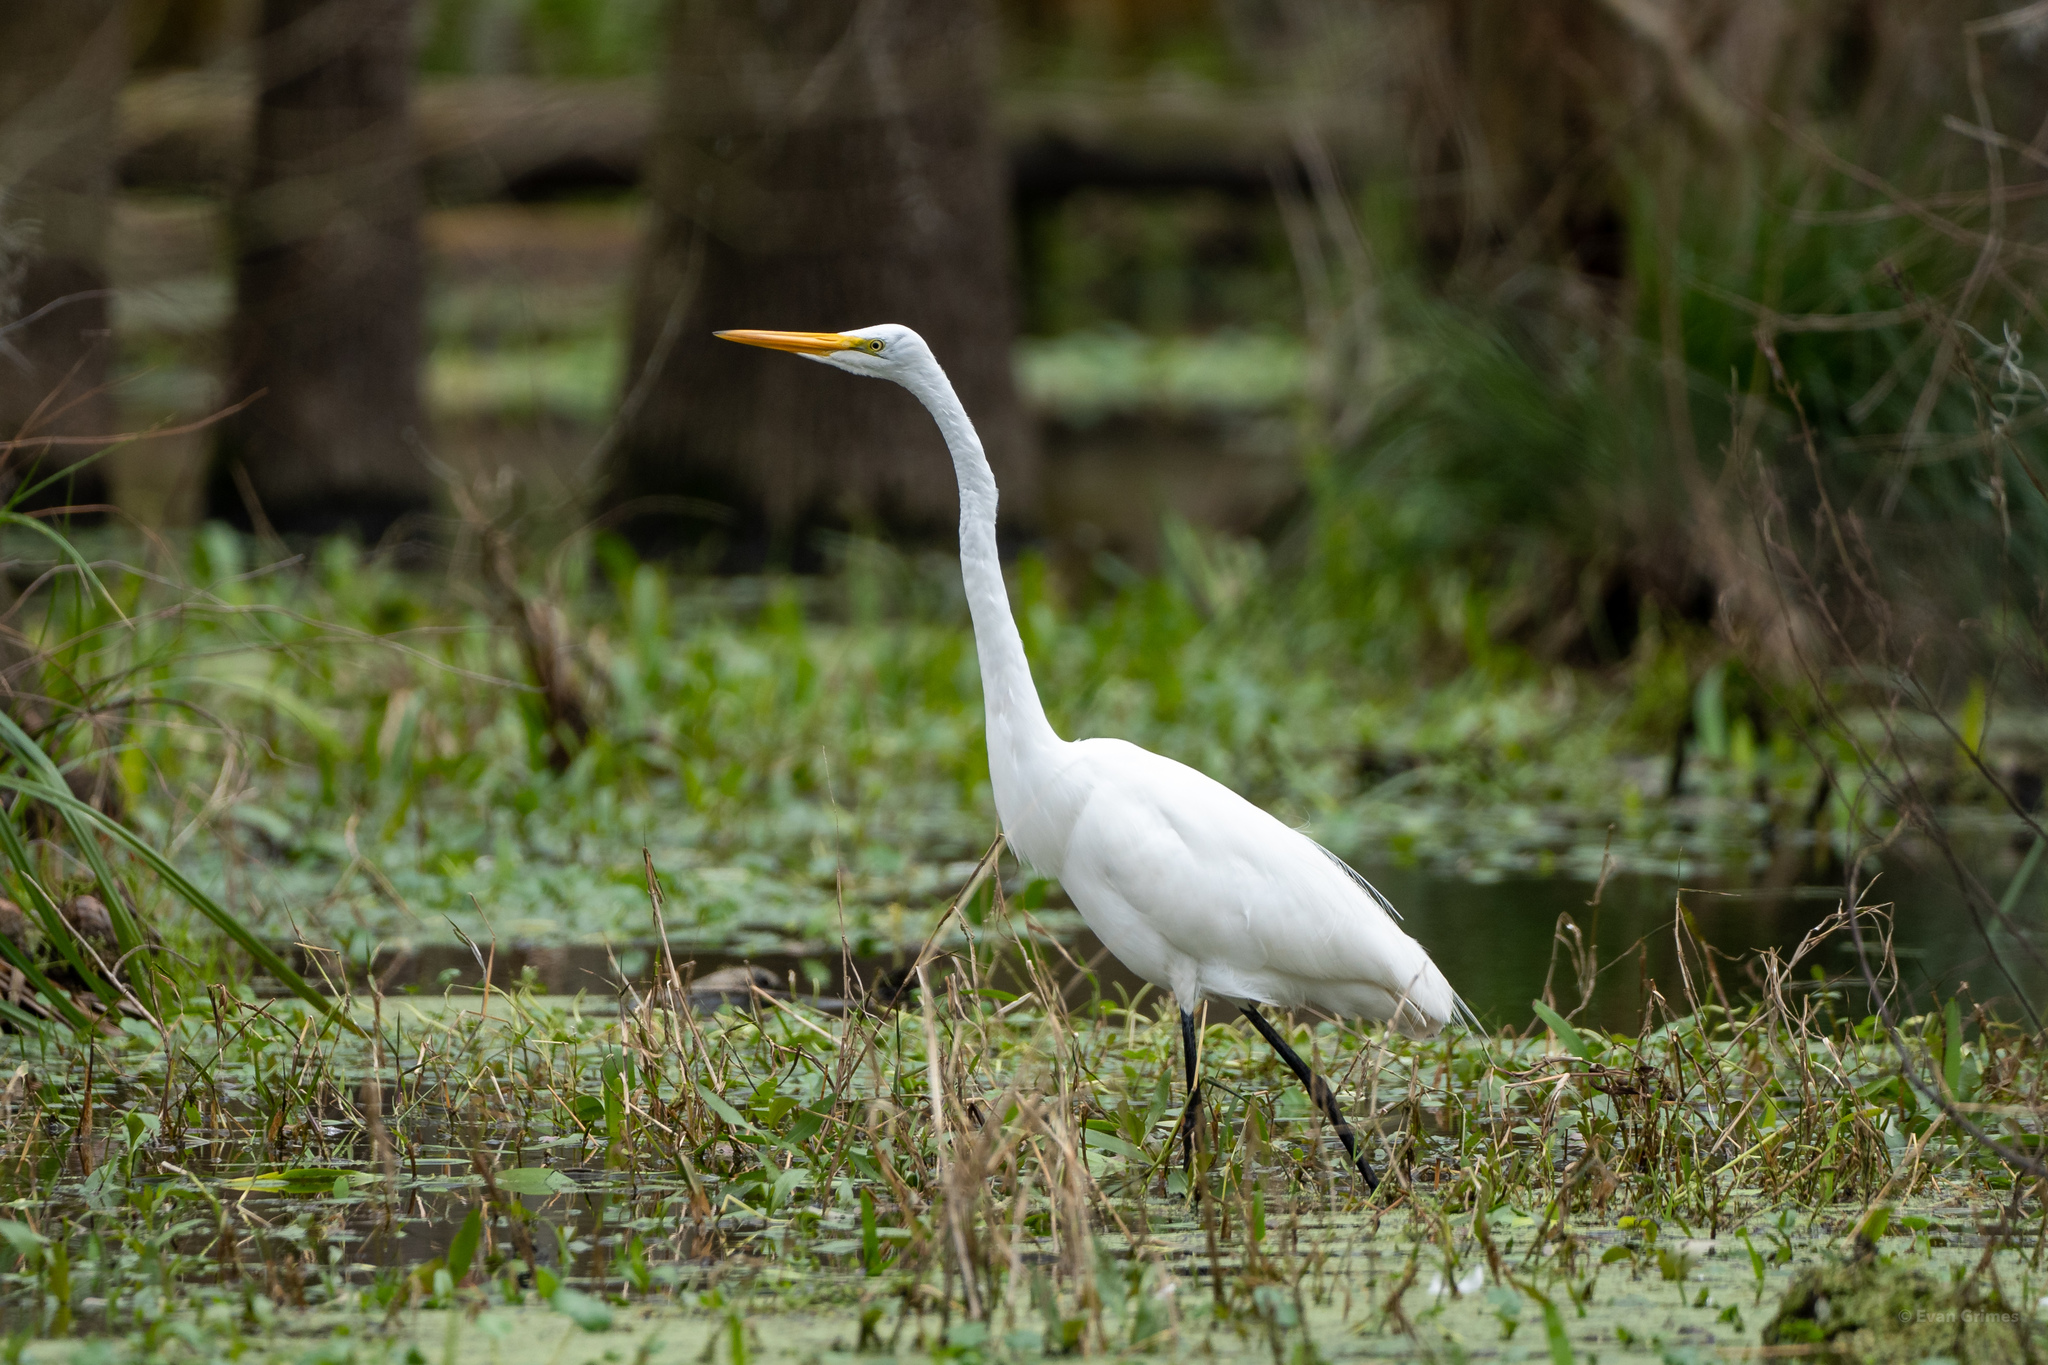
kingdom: Animalia
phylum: Chordata
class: Aves
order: Pelecaniformes
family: Ardeidae
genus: Ardea
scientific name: Ardea alba
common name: Great egret
